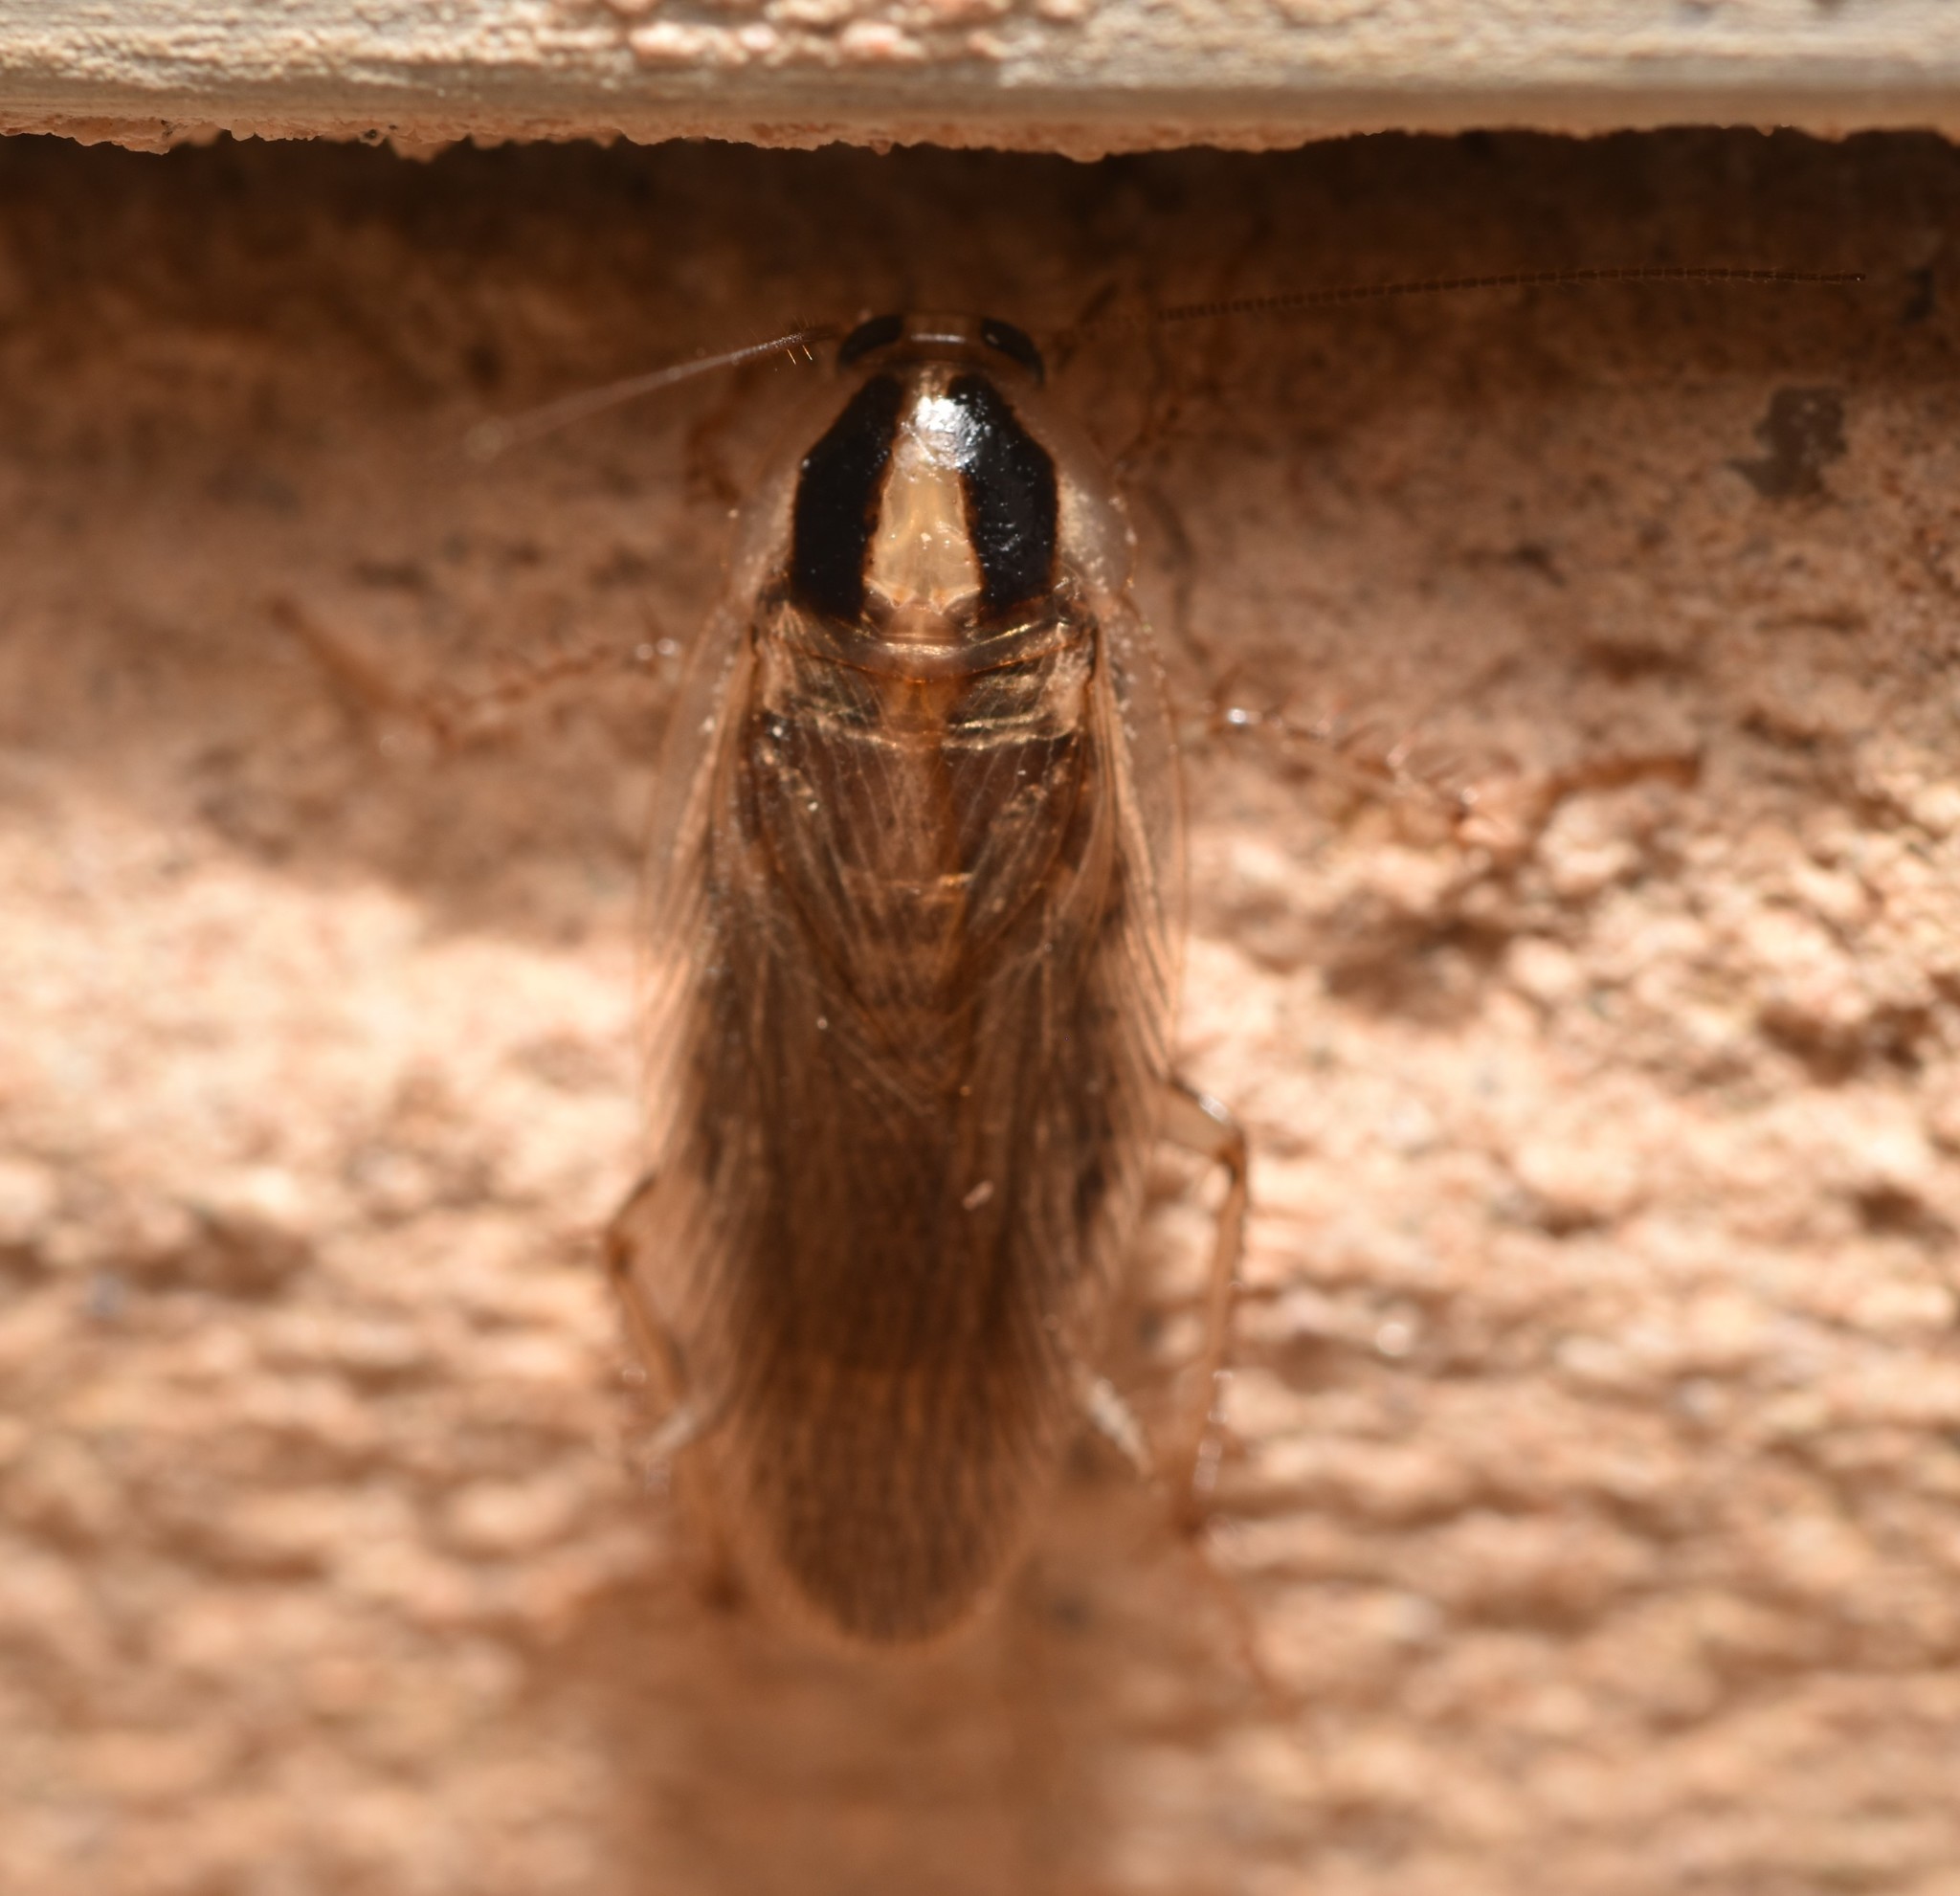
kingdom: Animalia
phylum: Arthropoda
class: Insecta
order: Blattodea
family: Ectobiidae
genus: Blattella
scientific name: Blattella vaga
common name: Field cockroach
